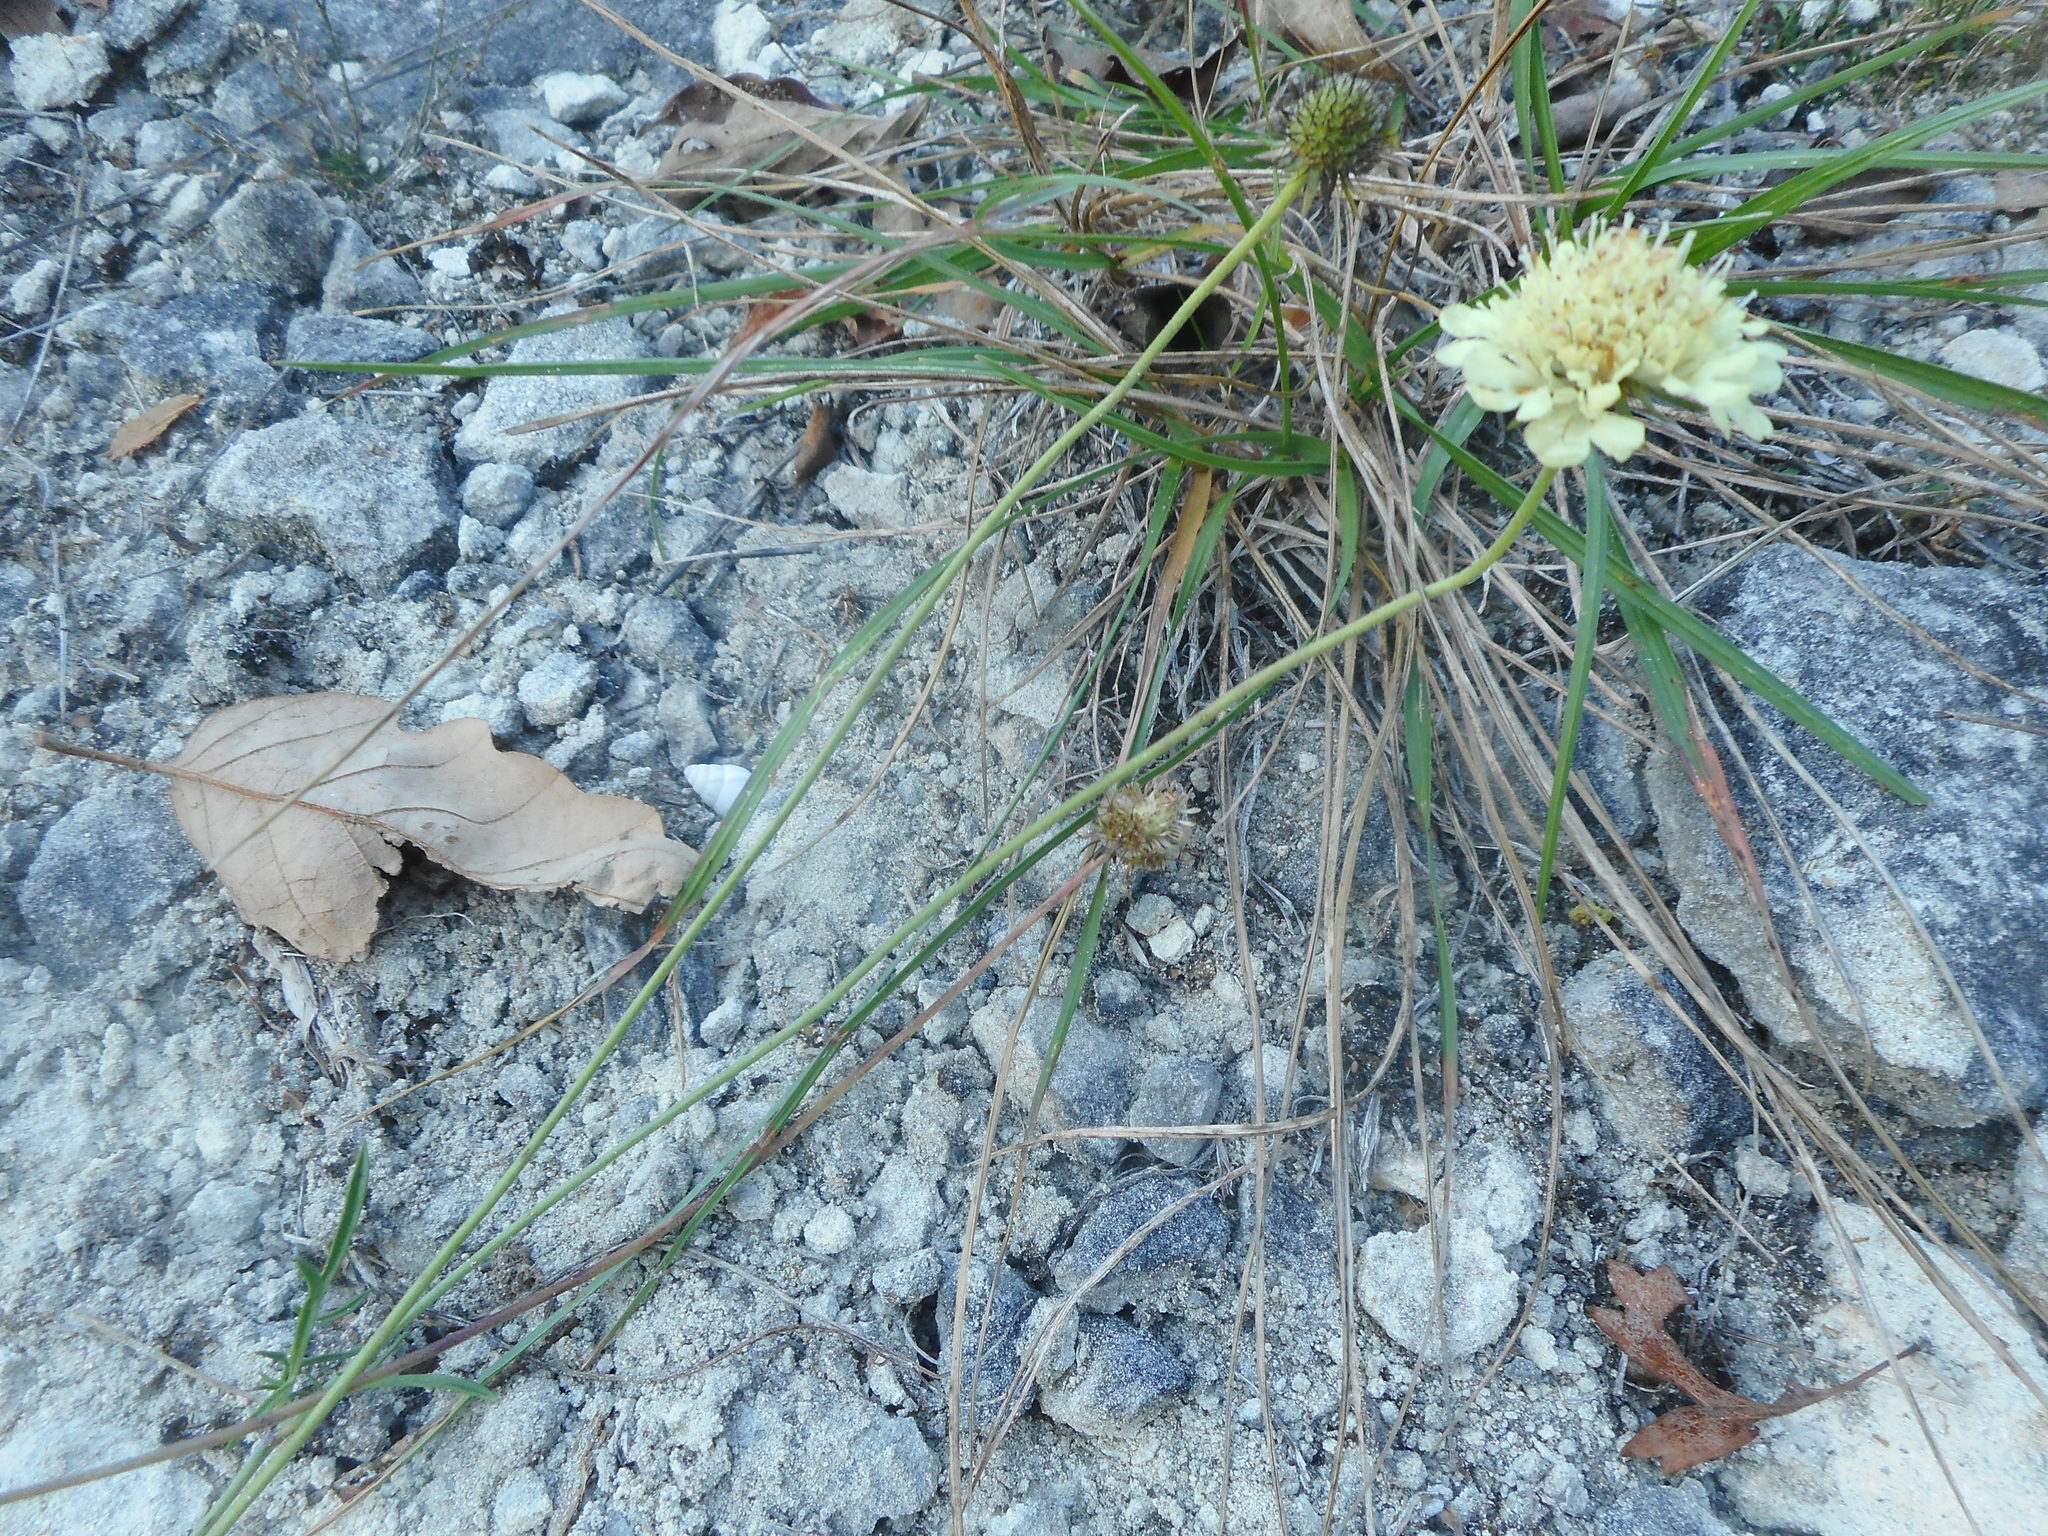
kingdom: Plantae
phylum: Tracheophyta
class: Magnoliopsida
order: Dipsacales
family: Caprifoliaceae
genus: Scabiosa
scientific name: Scabiosa ochroleuca
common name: Cream pincushions
